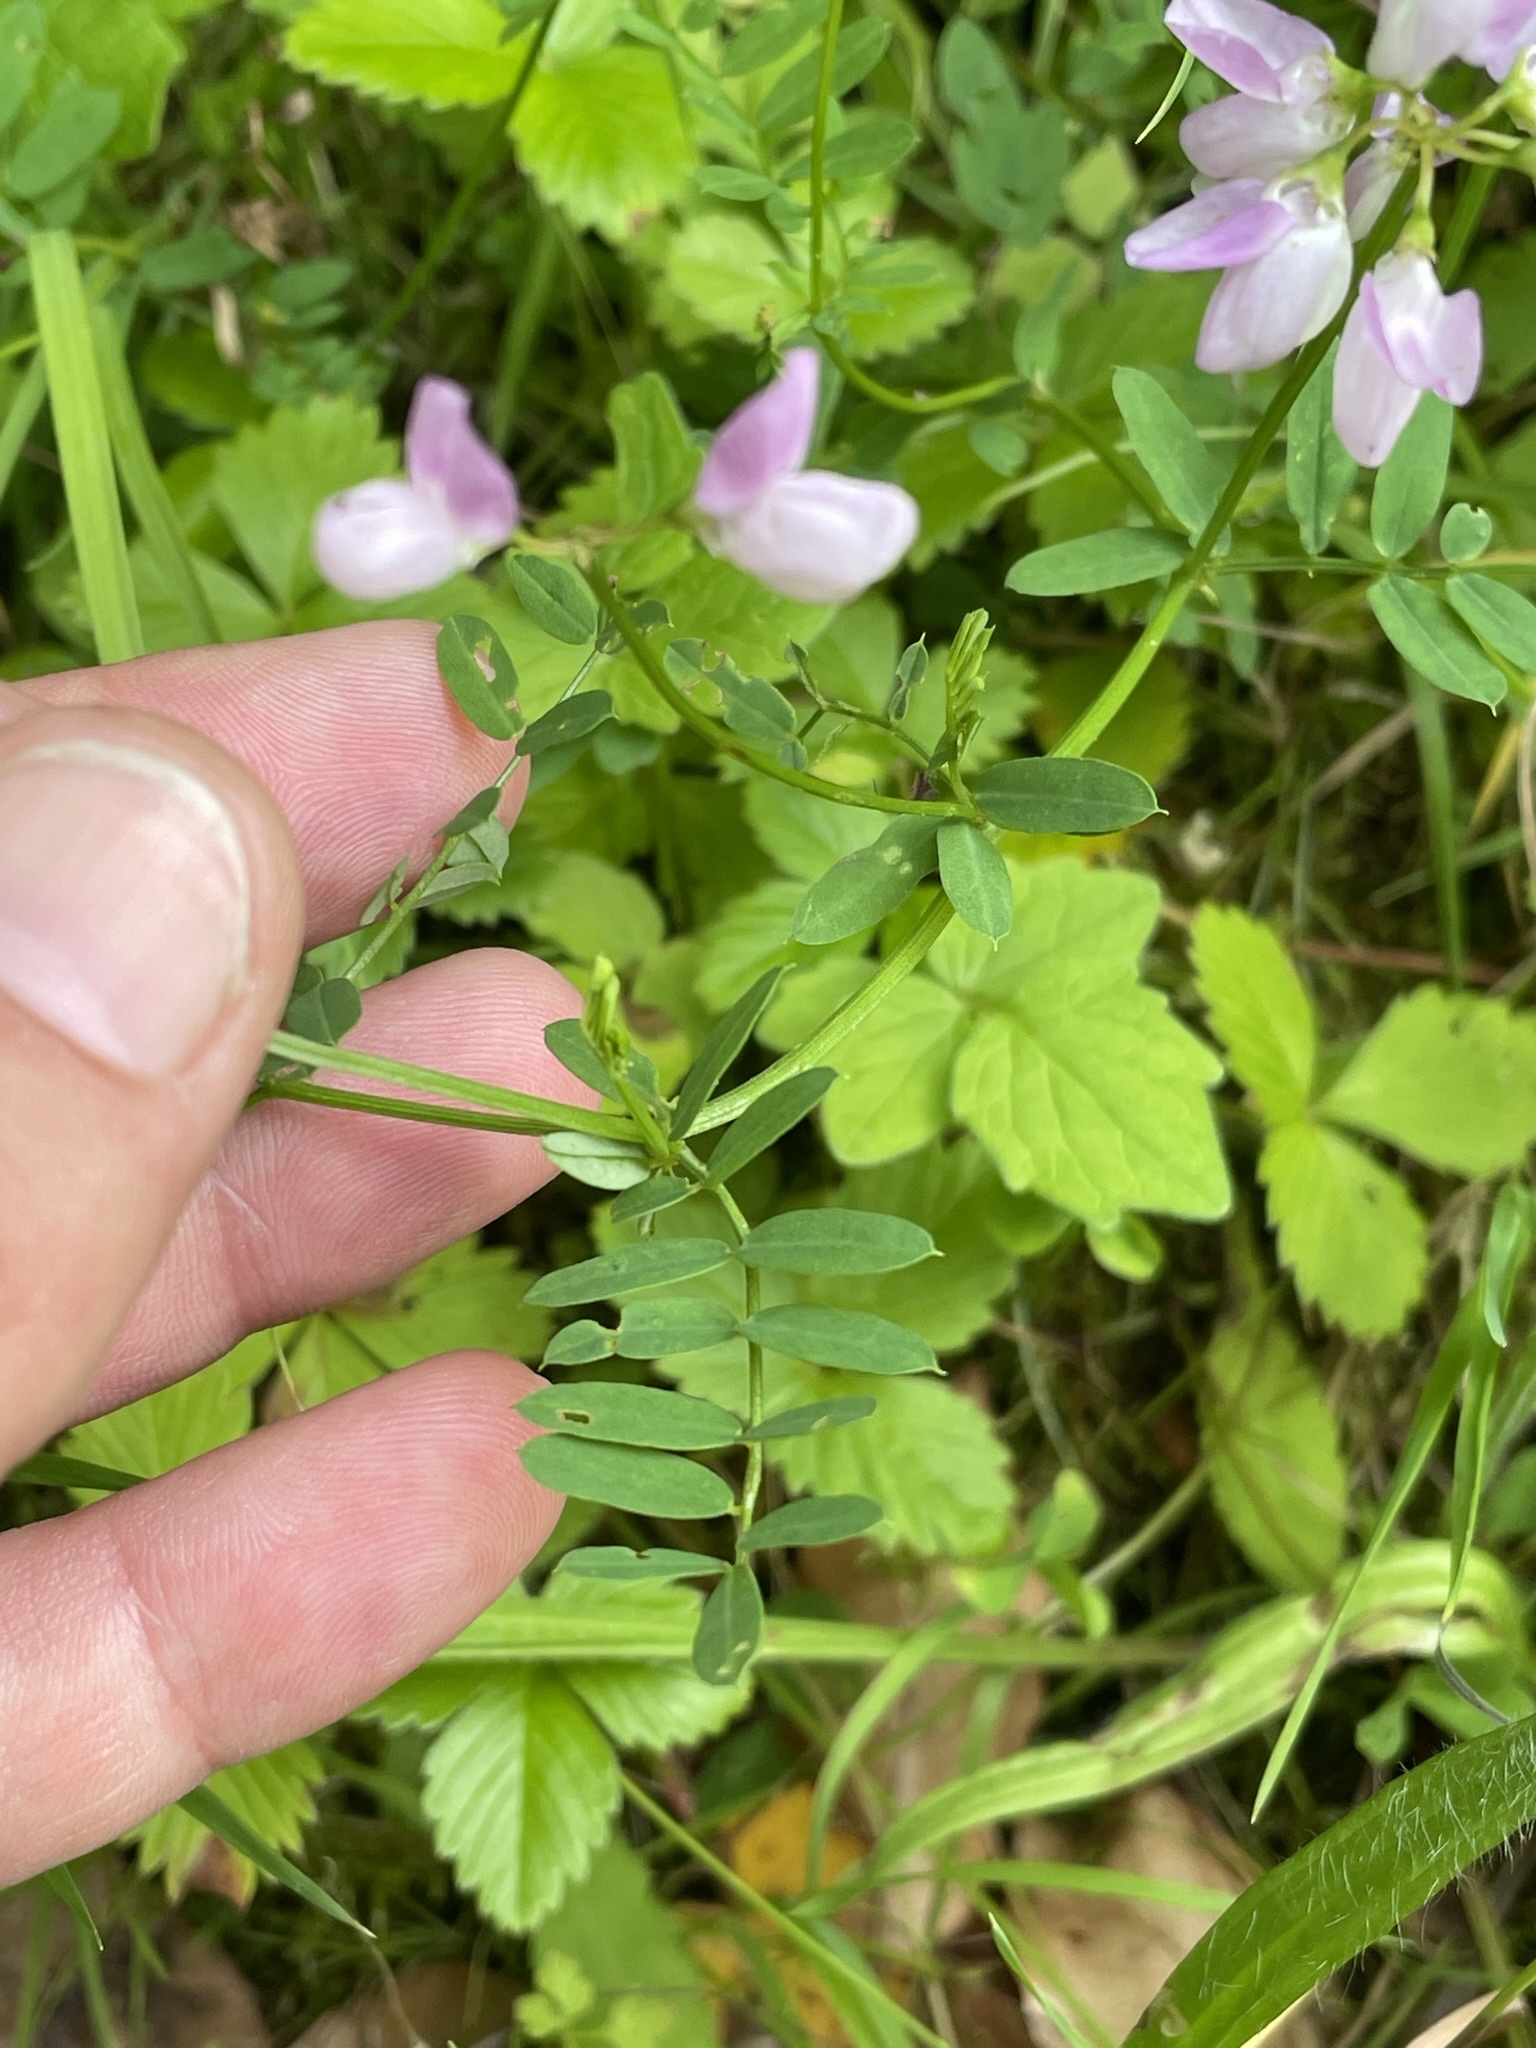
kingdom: Plantae
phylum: Tracheophyta
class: Magnoliopsida
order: Fabales
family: Fabaceae
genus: Coronilla
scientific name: Coronilla varia
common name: Crownvetch
